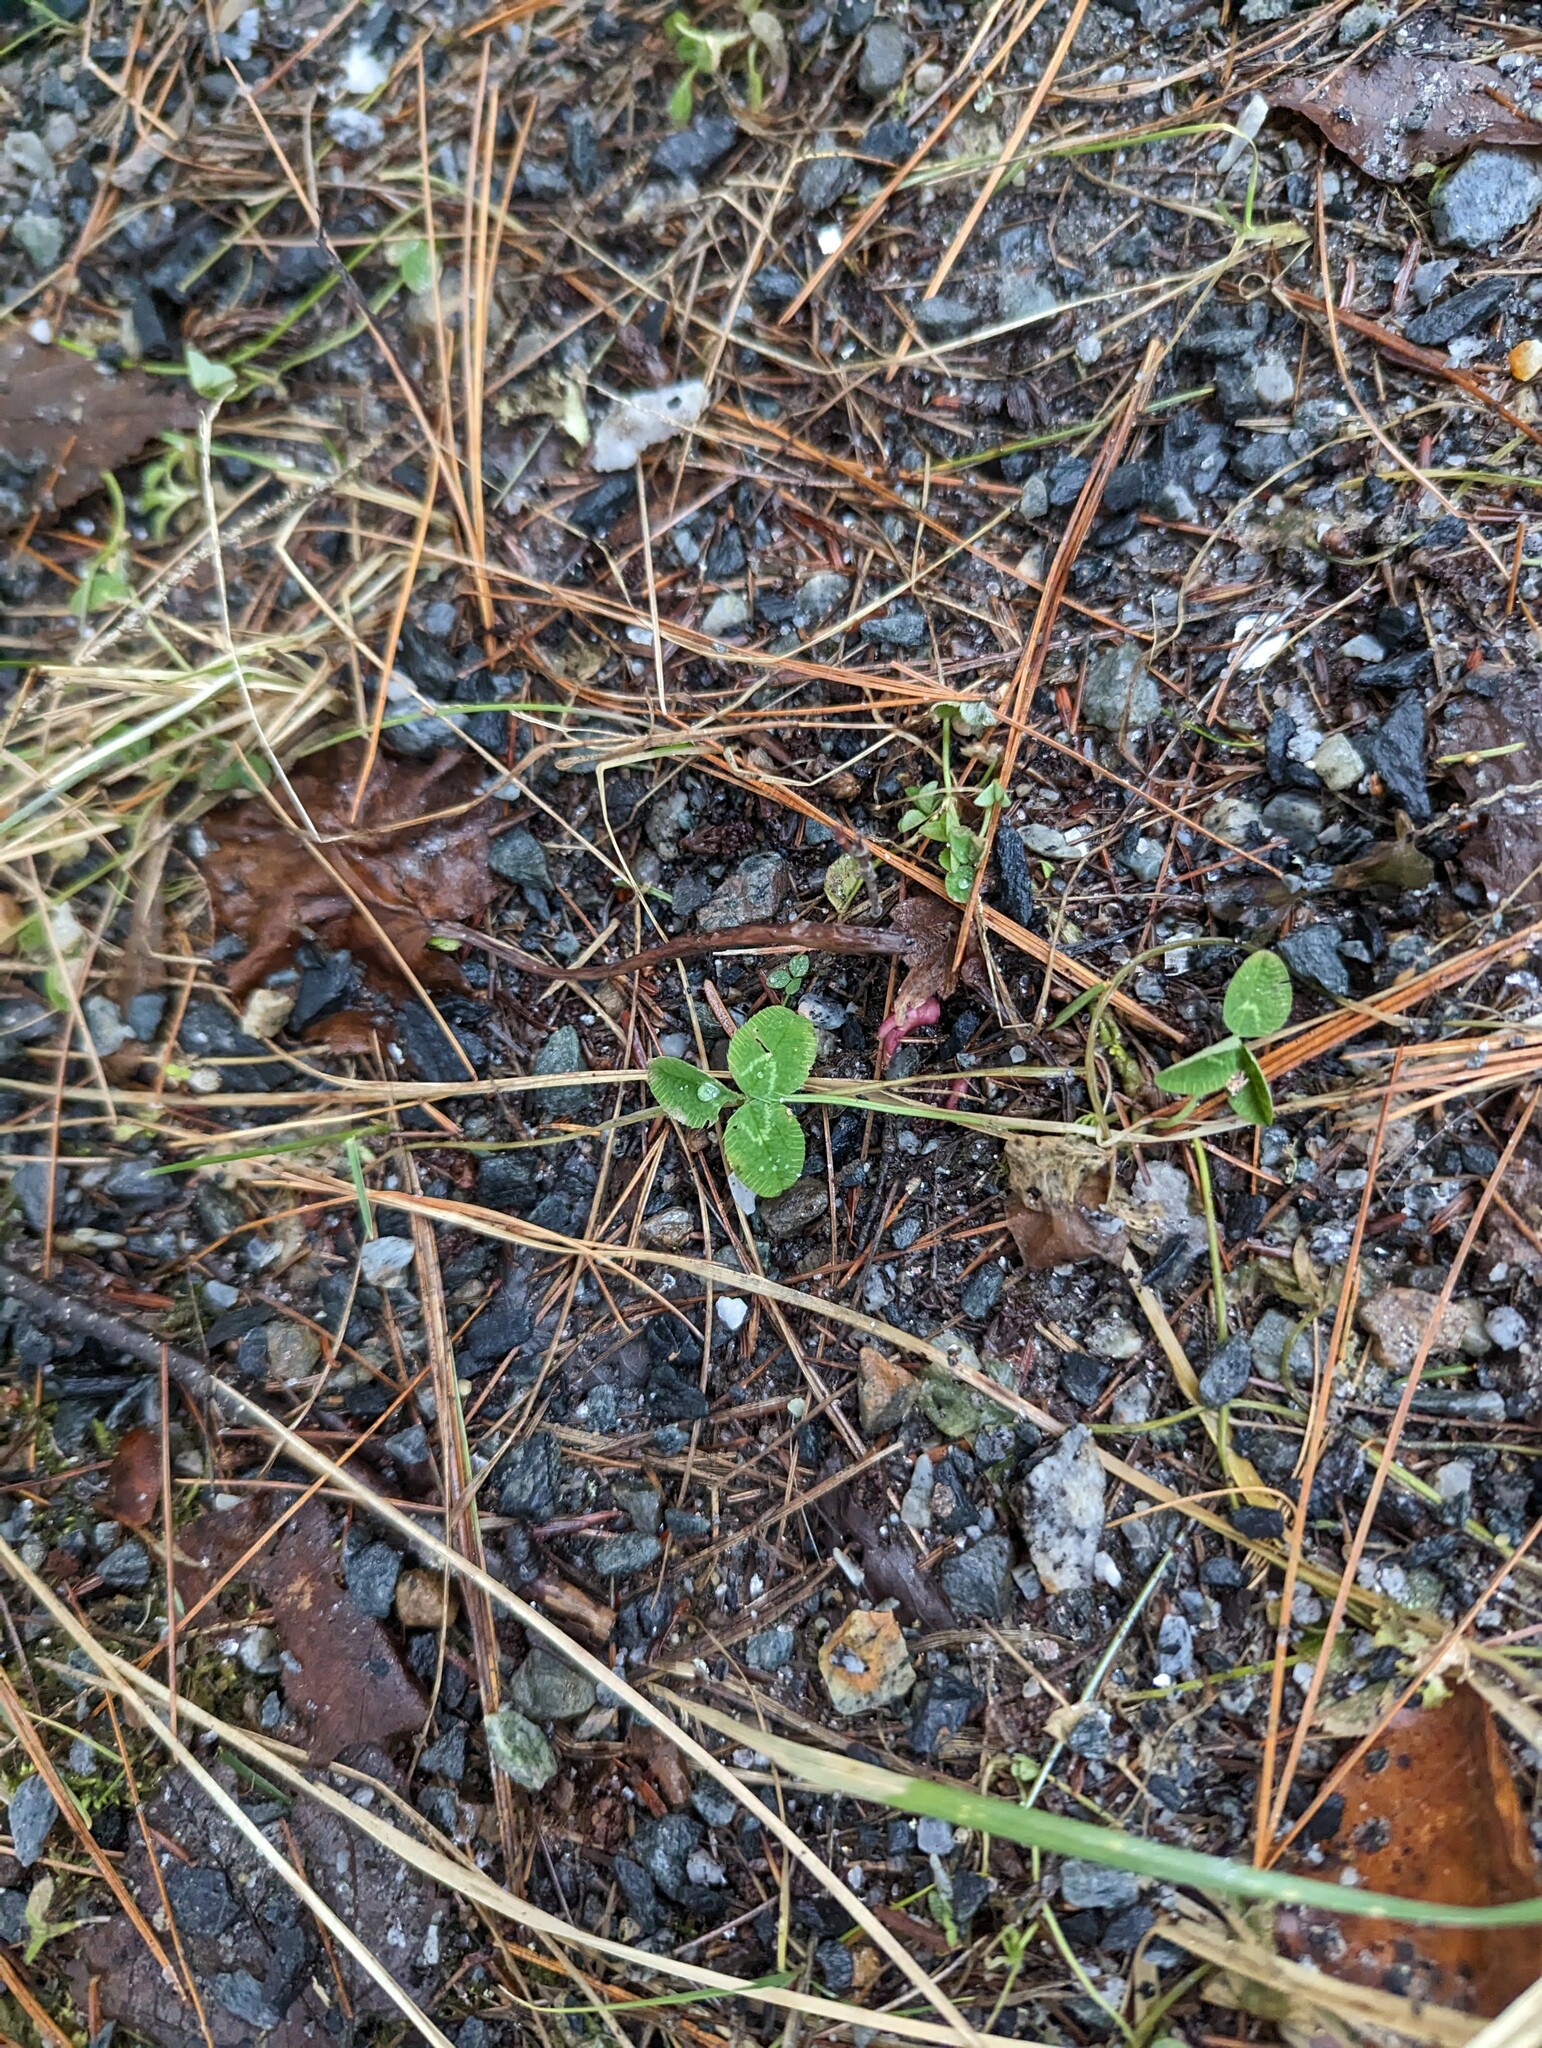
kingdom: Plantae
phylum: Tracheophyta
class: Magnoliopsida
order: Fabales
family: Fabaceae
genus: Trifolium
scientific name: Trifolium repens
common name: White clover
